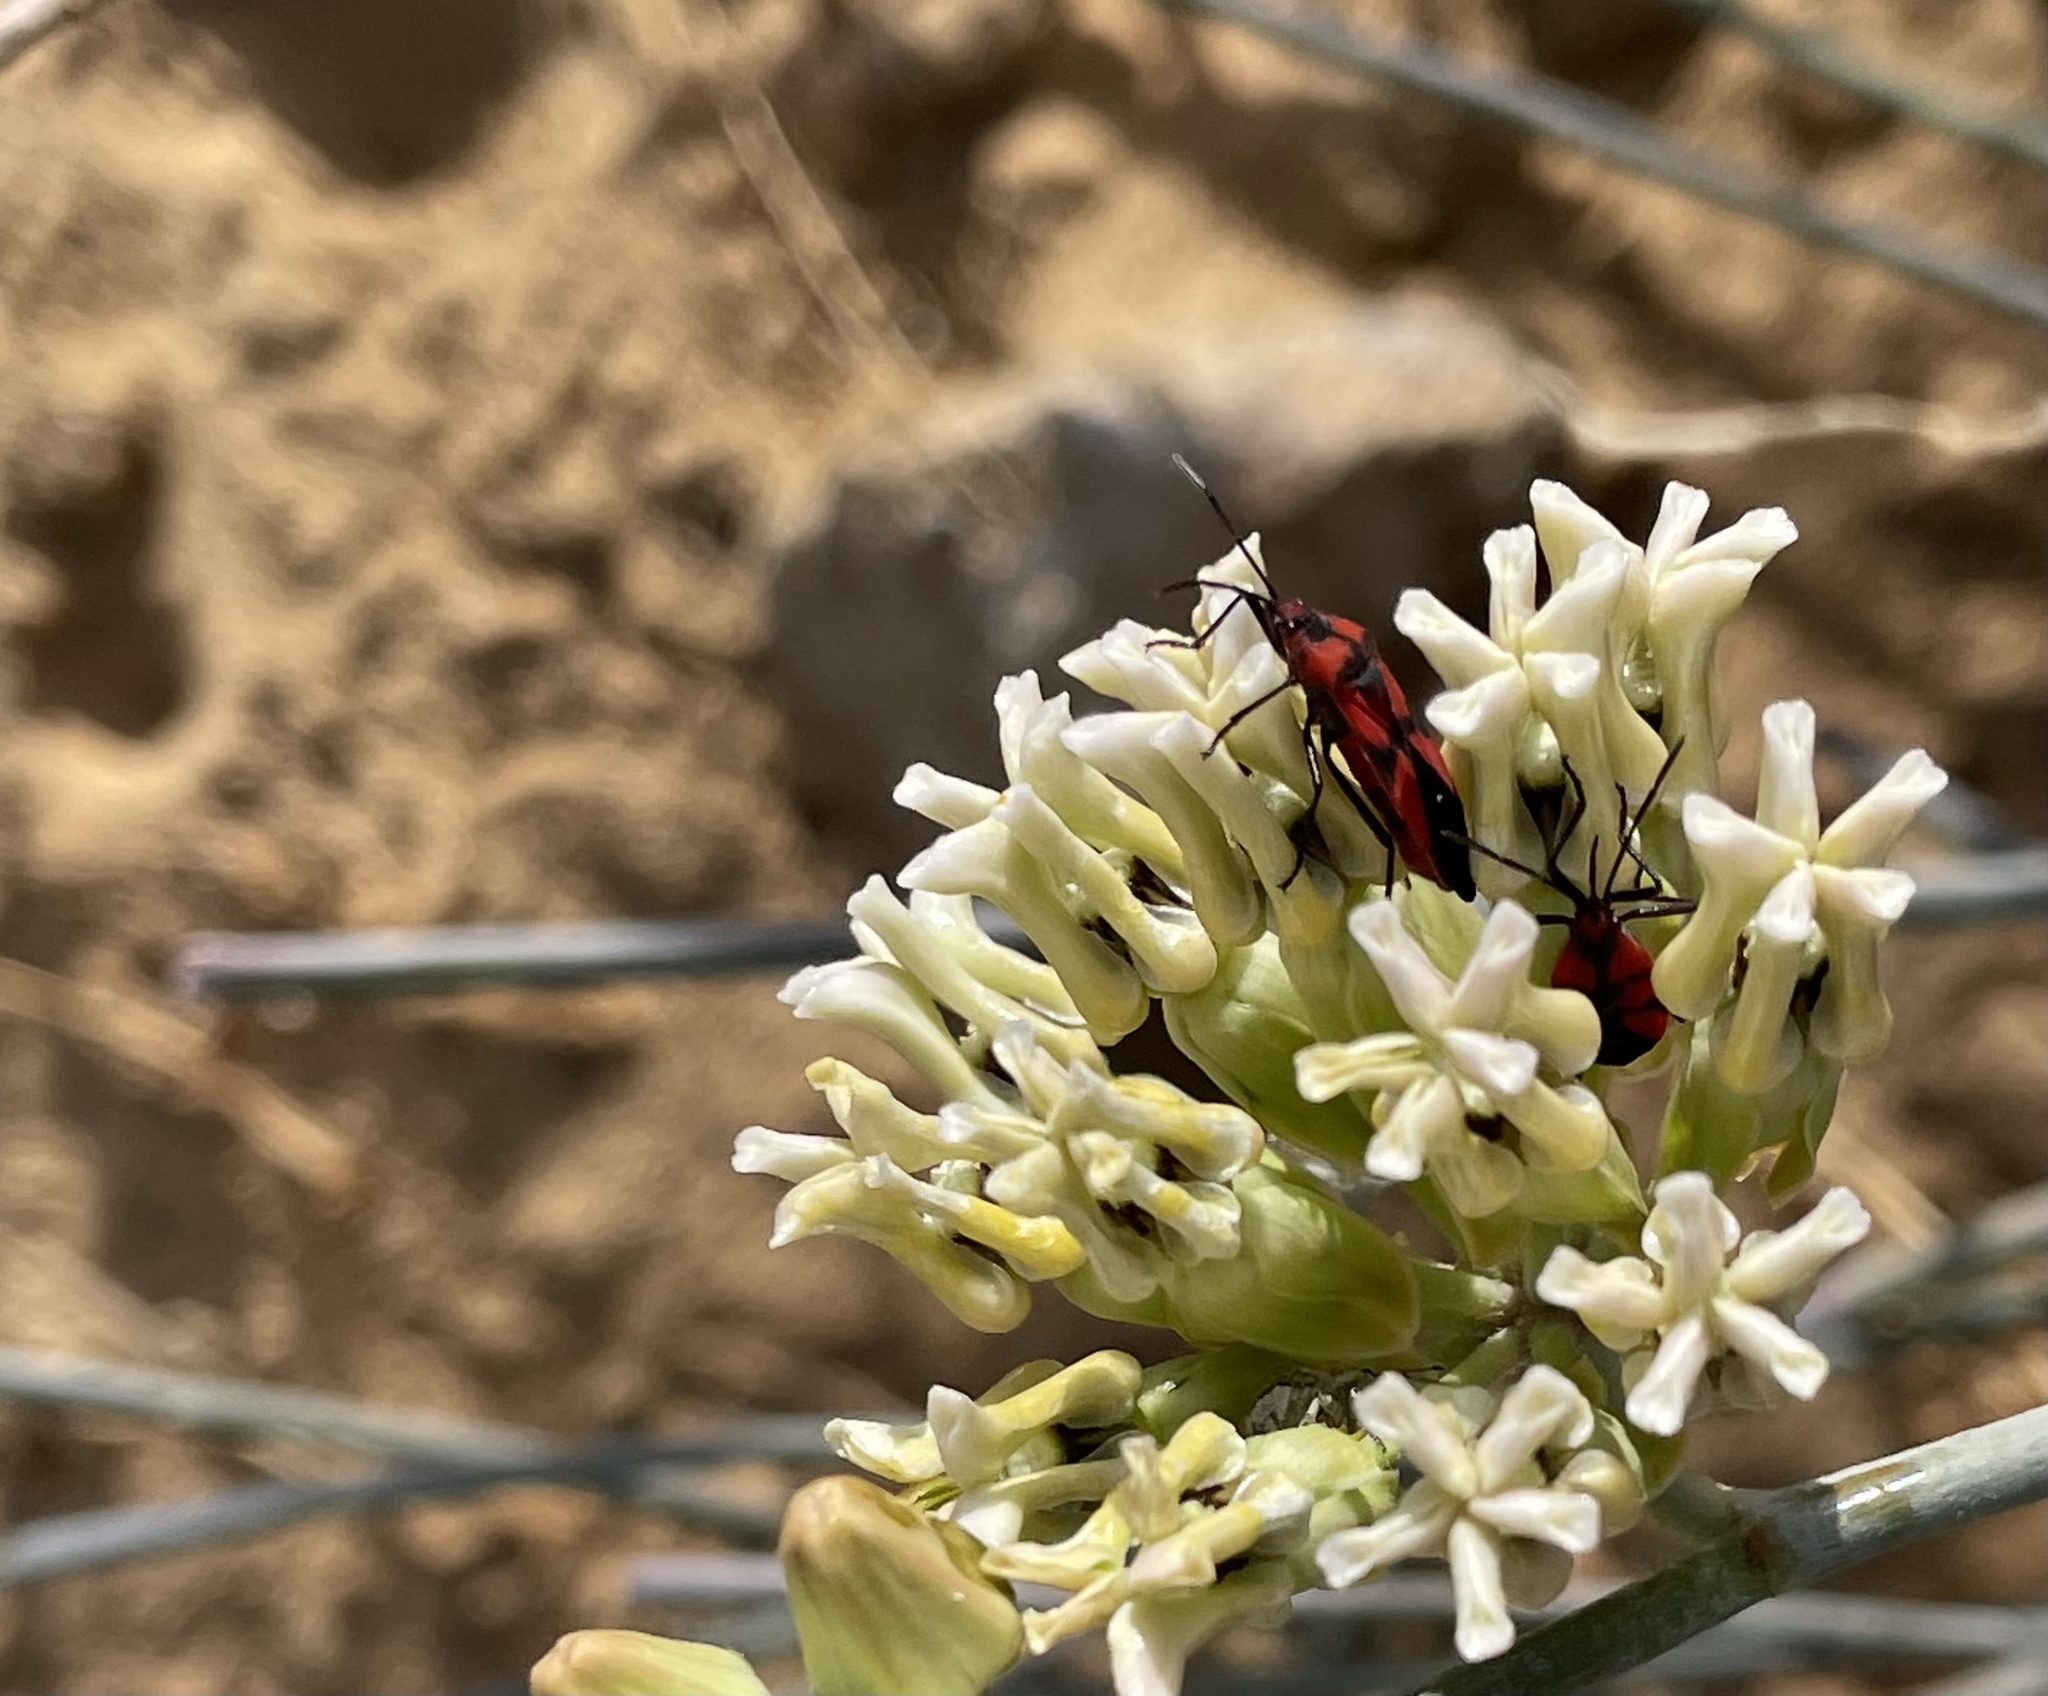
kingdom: Animalia
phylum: Arthropoda
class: Insecta
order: Hemiptera
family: Lygaeidae
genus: Oncopeltus
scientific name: Oncopeltus sanguinolentus
